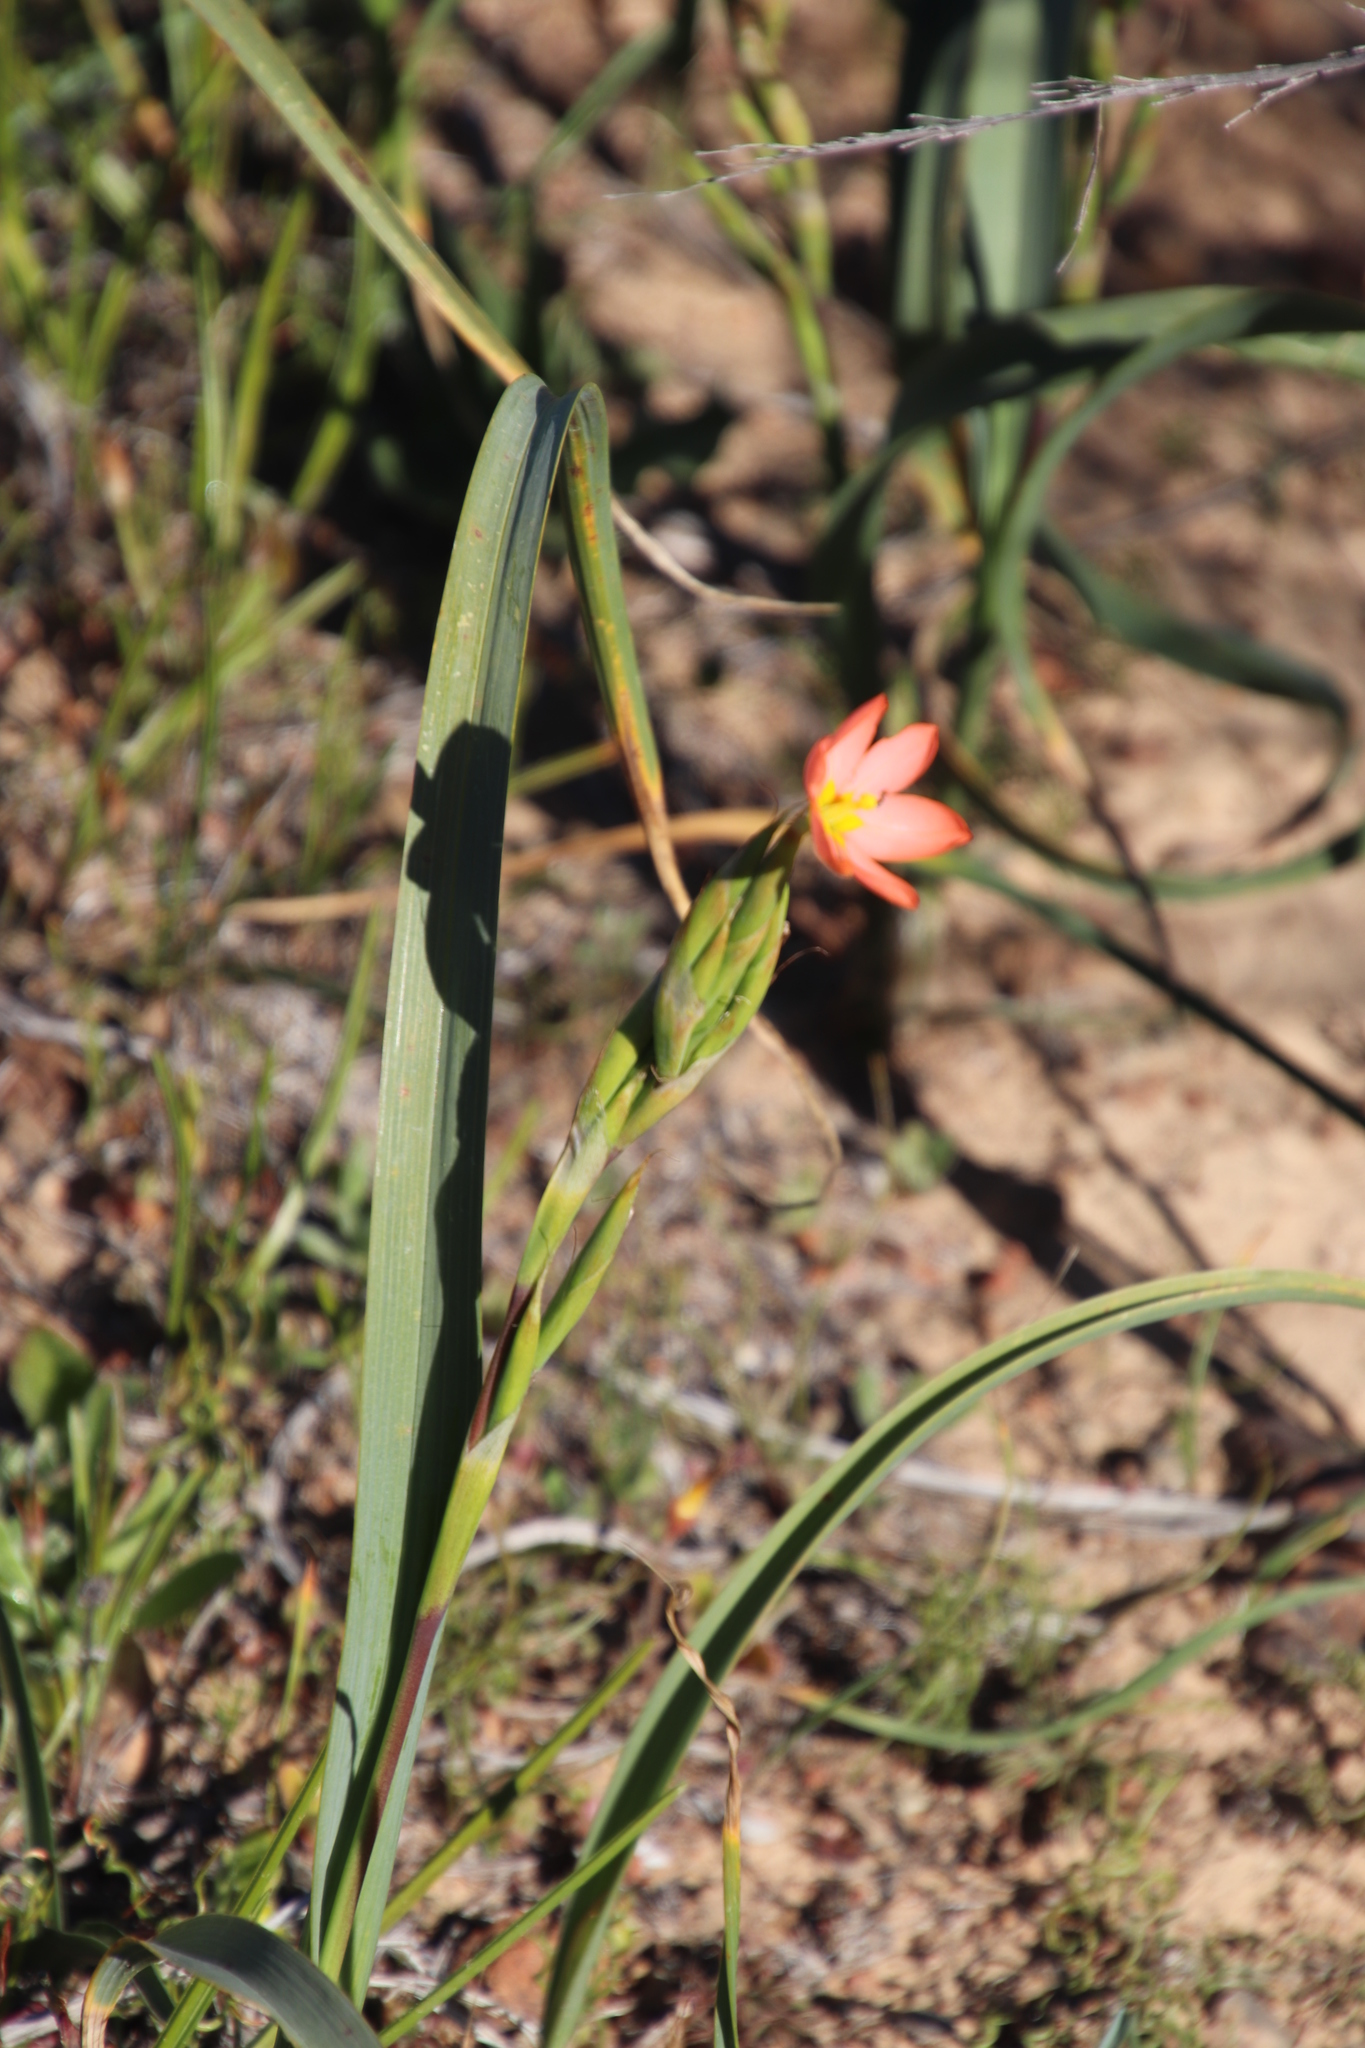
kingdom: Plantae
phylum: Tracheophyta
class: Liliopsida
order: Asparagales
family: Iridaceae
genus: Moraea
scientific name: Moraea miniata
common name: Two-leaf cape-tulip
